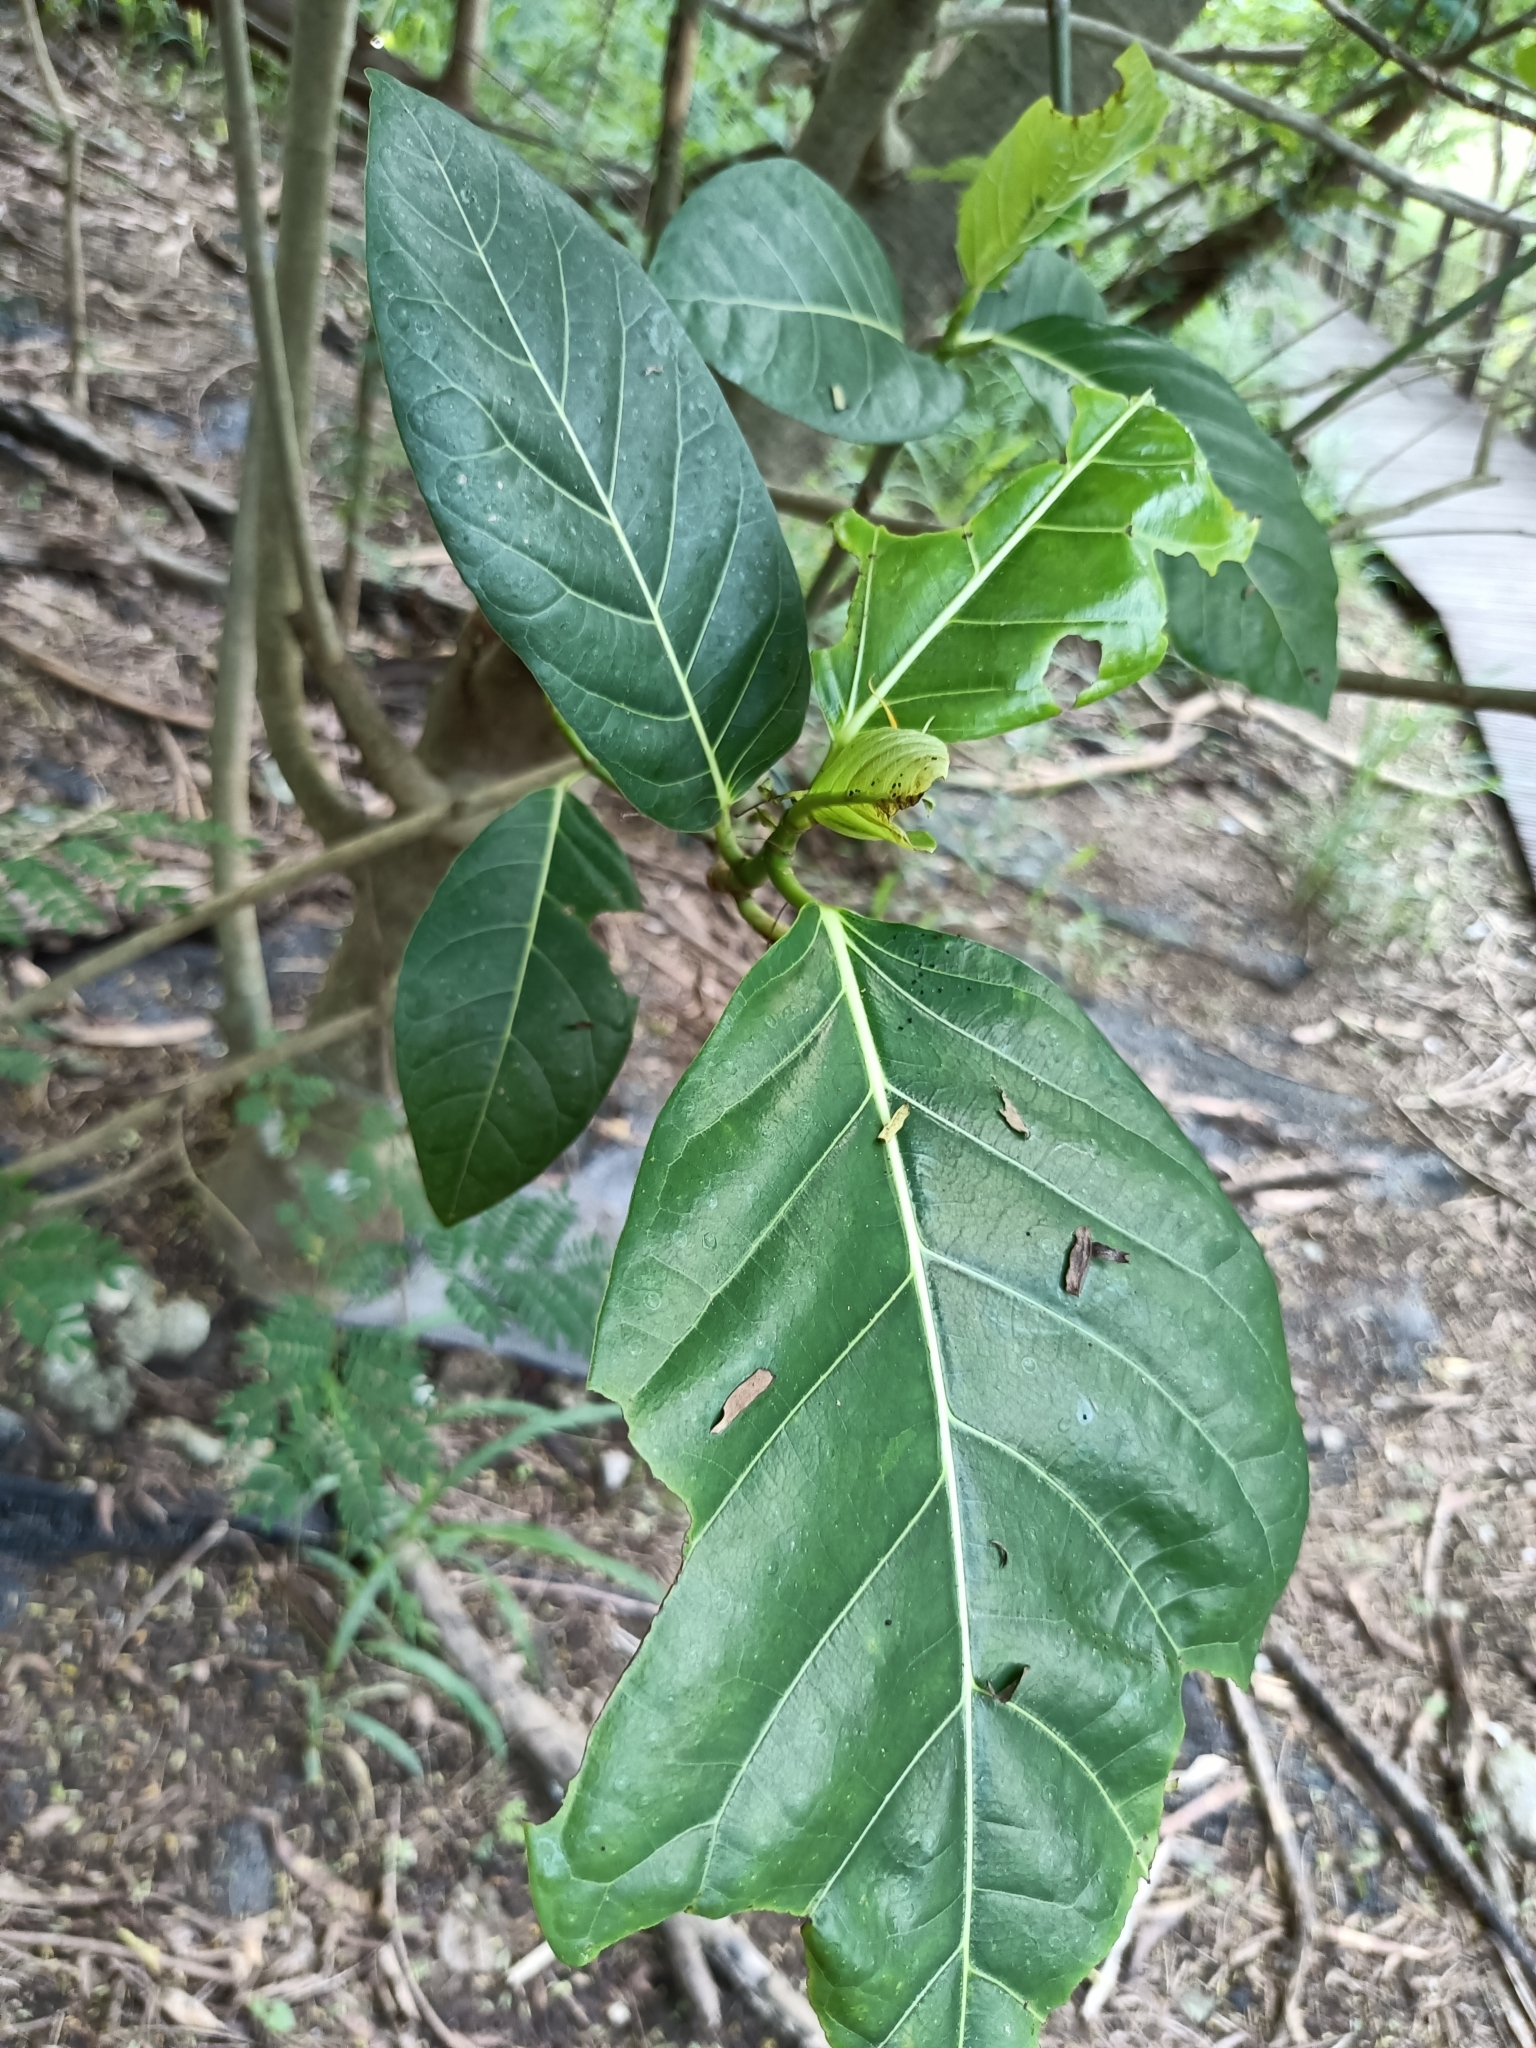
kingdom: Plantae
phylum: Tracheophyta
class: Magnoliopsida
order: Rosales
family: Moraceae
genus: Ficus
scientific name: Ficus septica
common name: Septic fig
